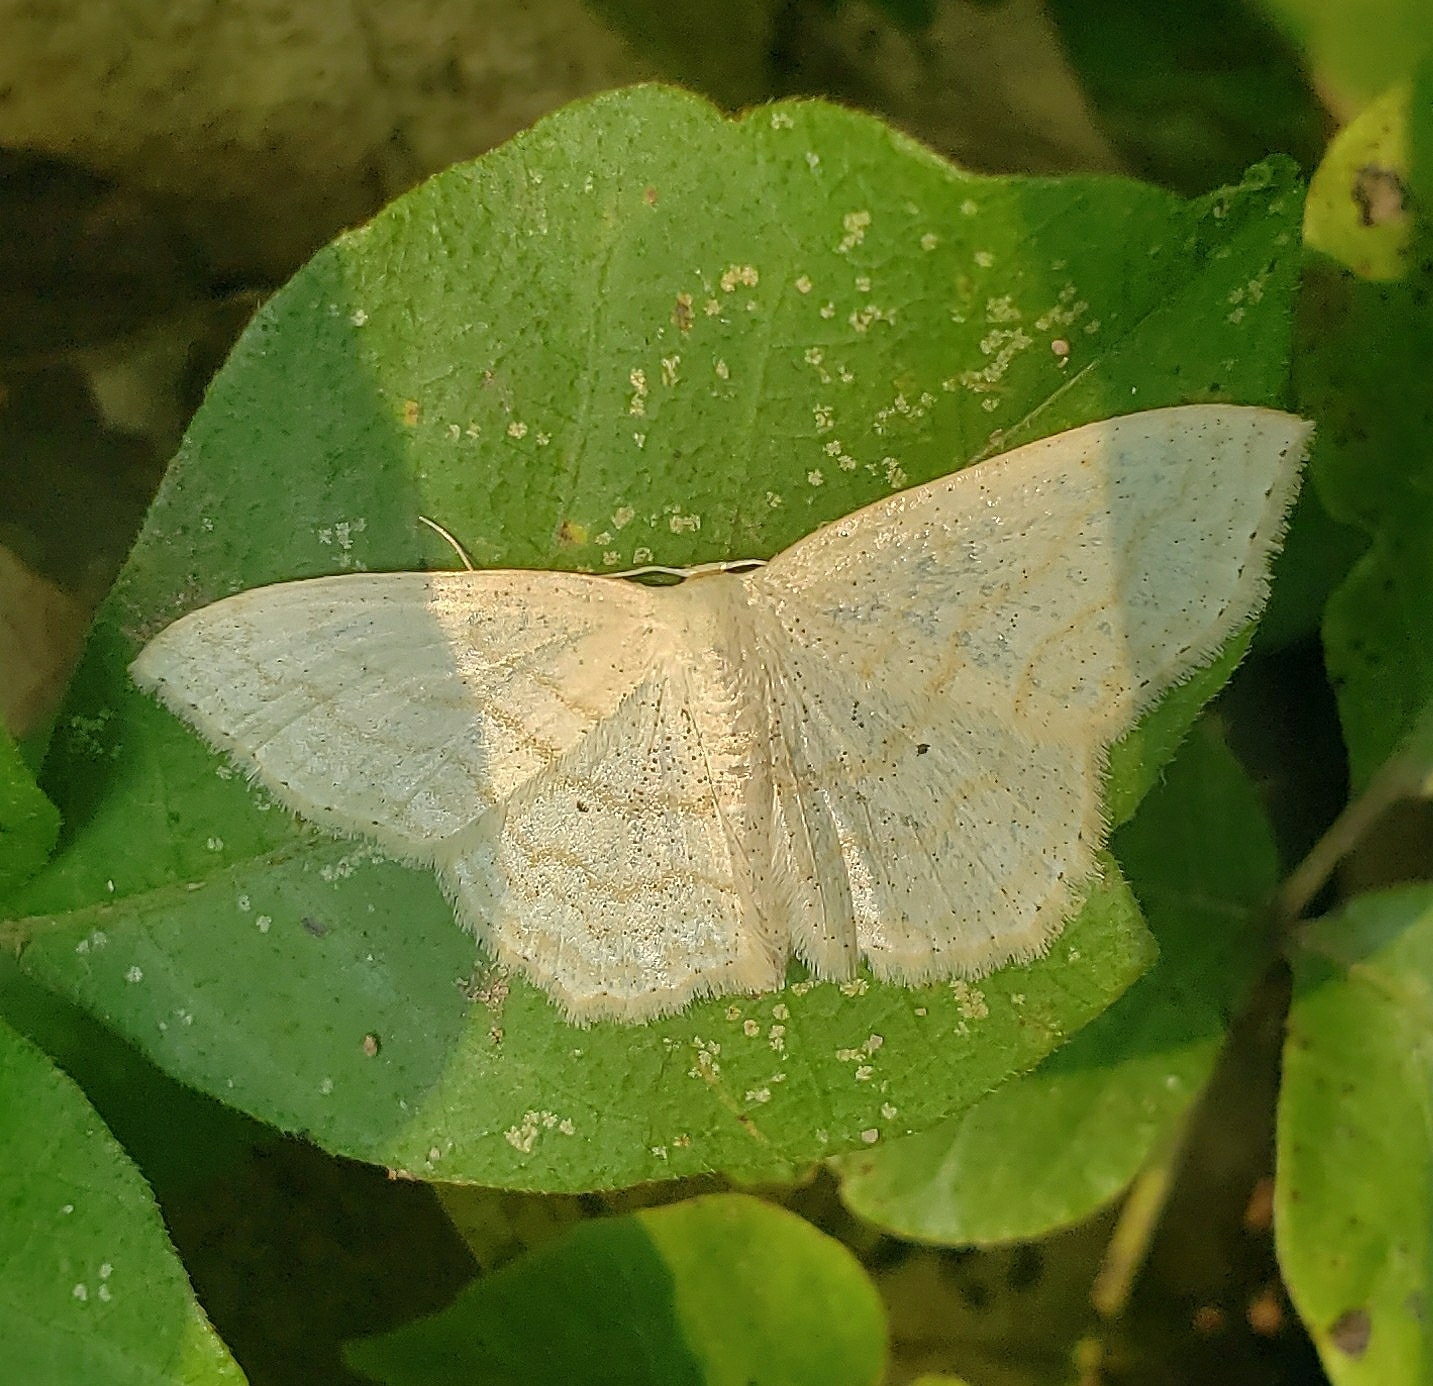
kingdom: Animalia
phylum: Arthropoda
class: Insecta
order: Lepidoptera
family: Geometridae
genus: Scopula
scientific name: Scopula limboundata
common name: Large lace border
